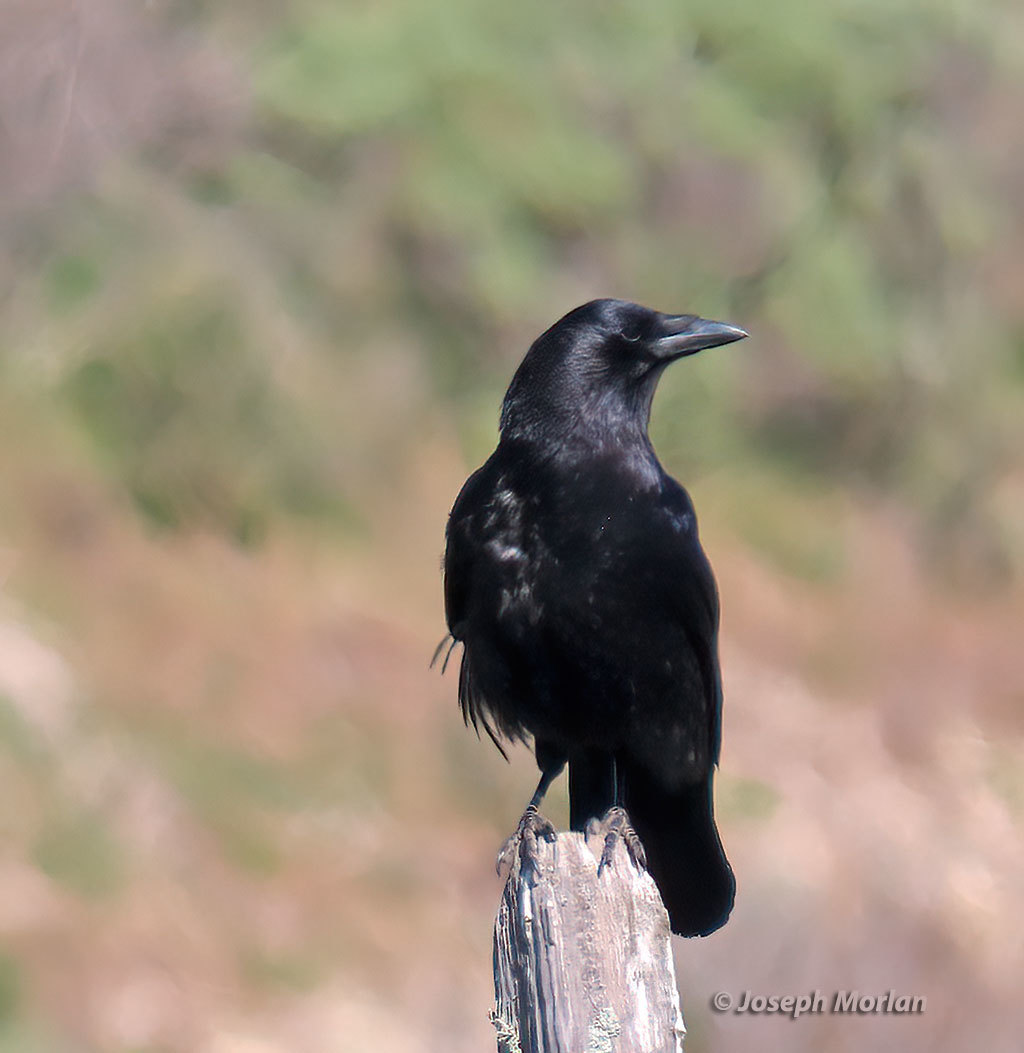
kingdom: Animalia
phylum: Chordata
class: Aves
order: Passeriformes
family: Corvidae
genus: Corvus
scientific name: Corvus brachyrhynchos
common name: American crow
